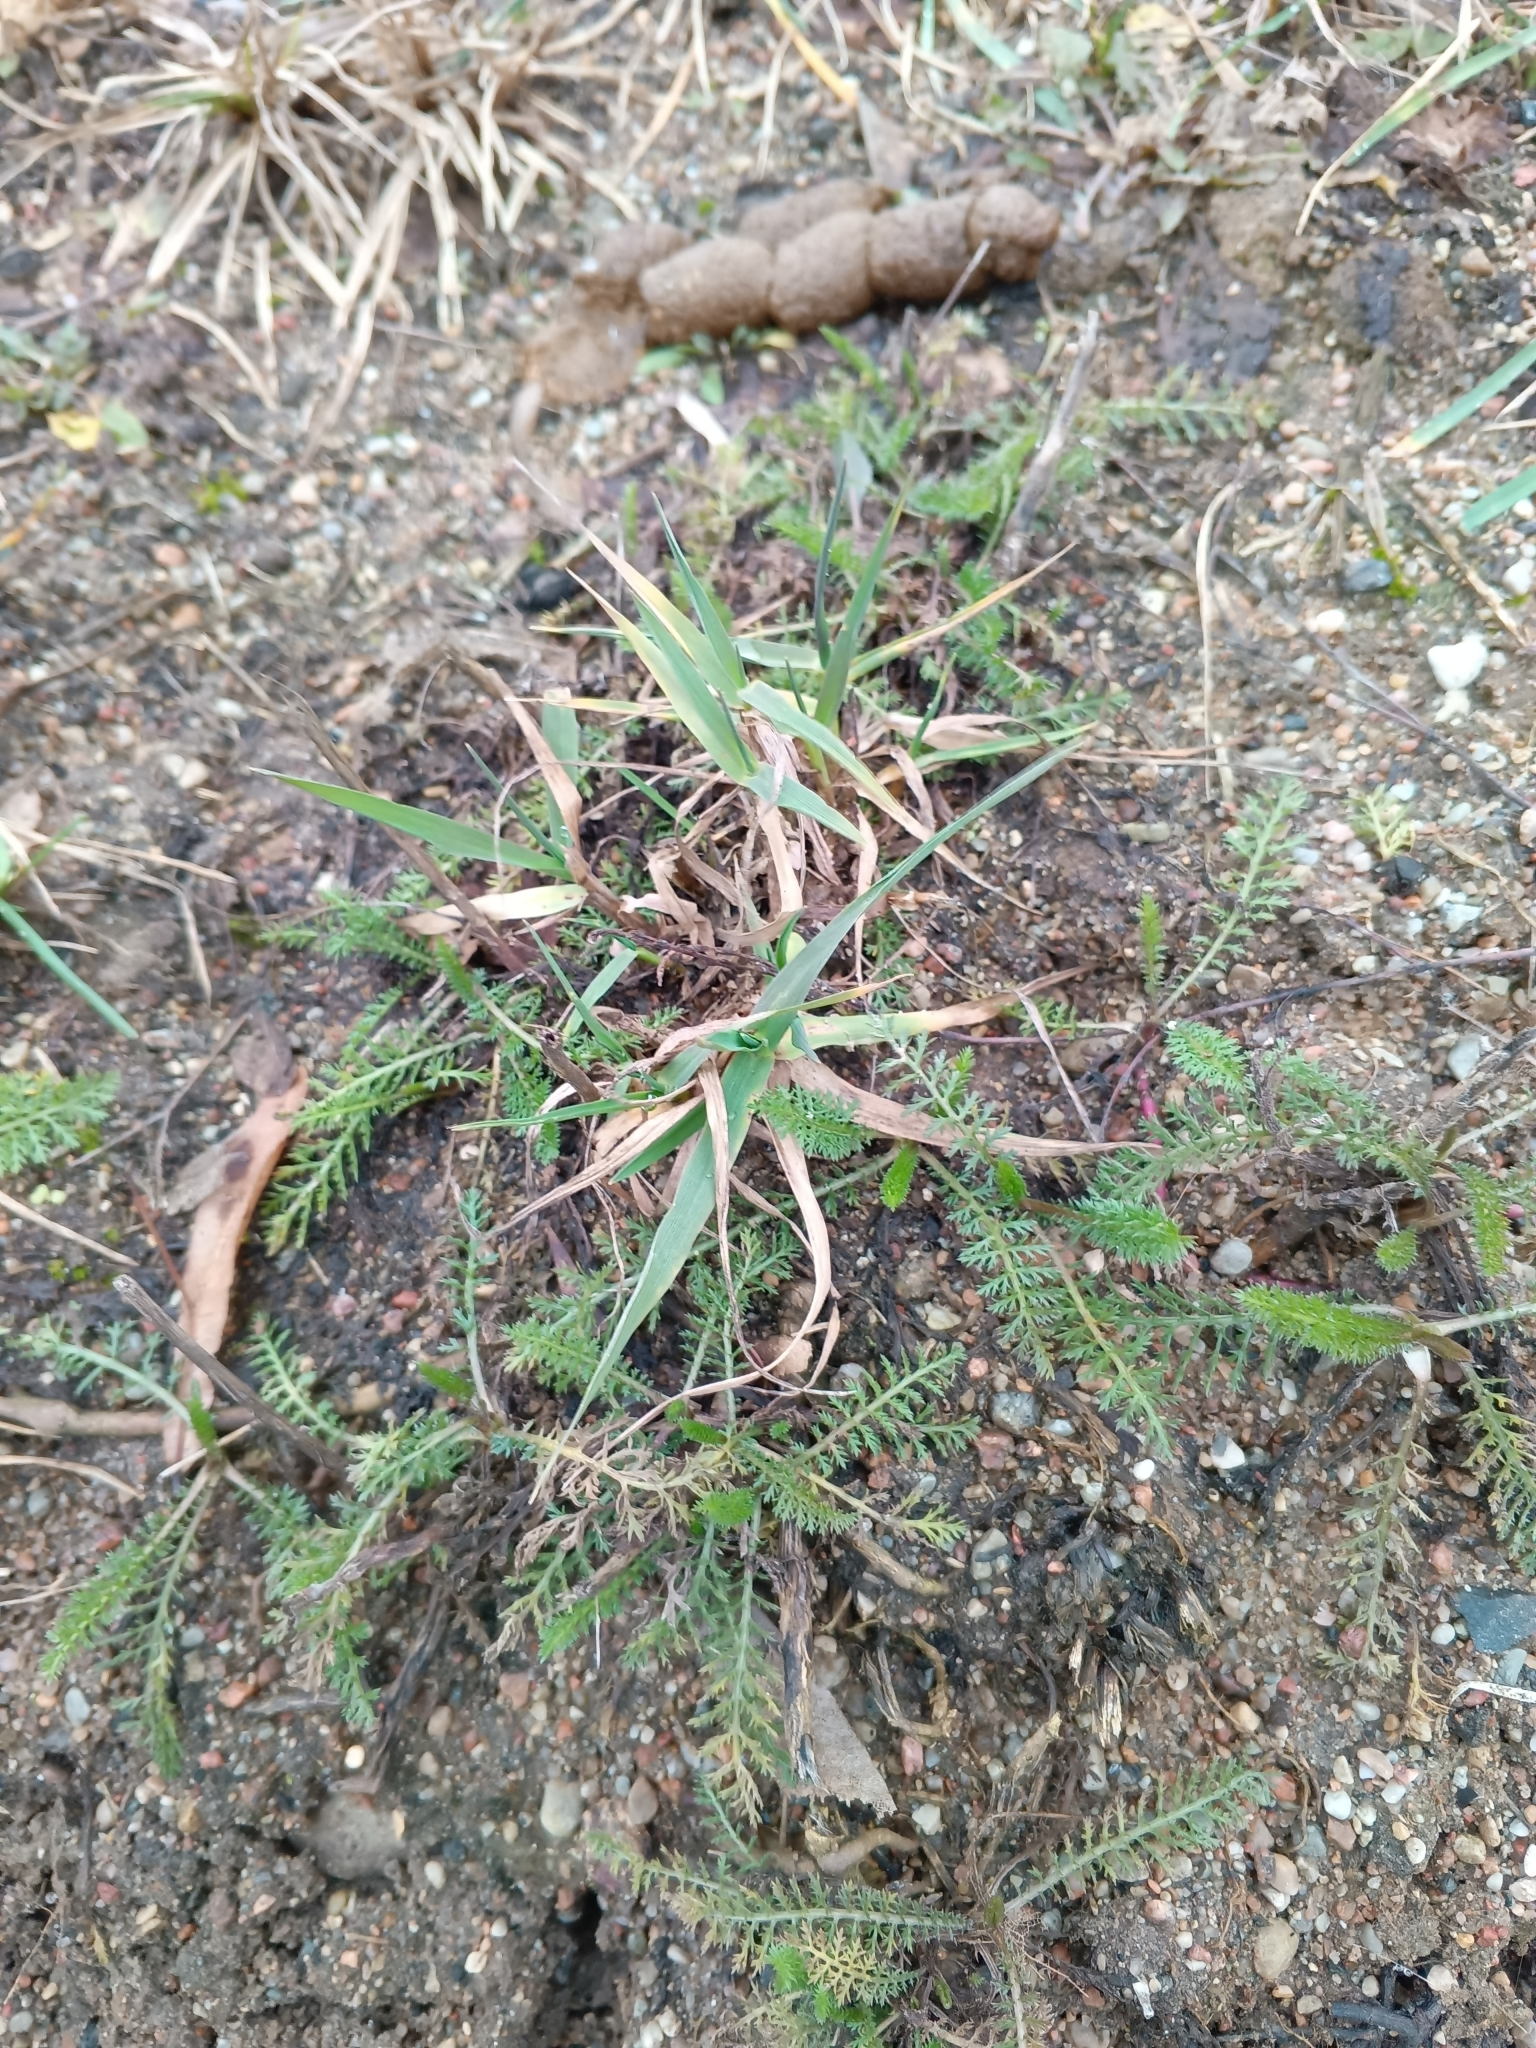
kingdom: Plantae
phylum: Tracheophyta
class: Magnoliopsida
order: Asterales
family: Asteraceae
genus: Achillea
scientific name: Achillea millefolium
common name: Yarrow
